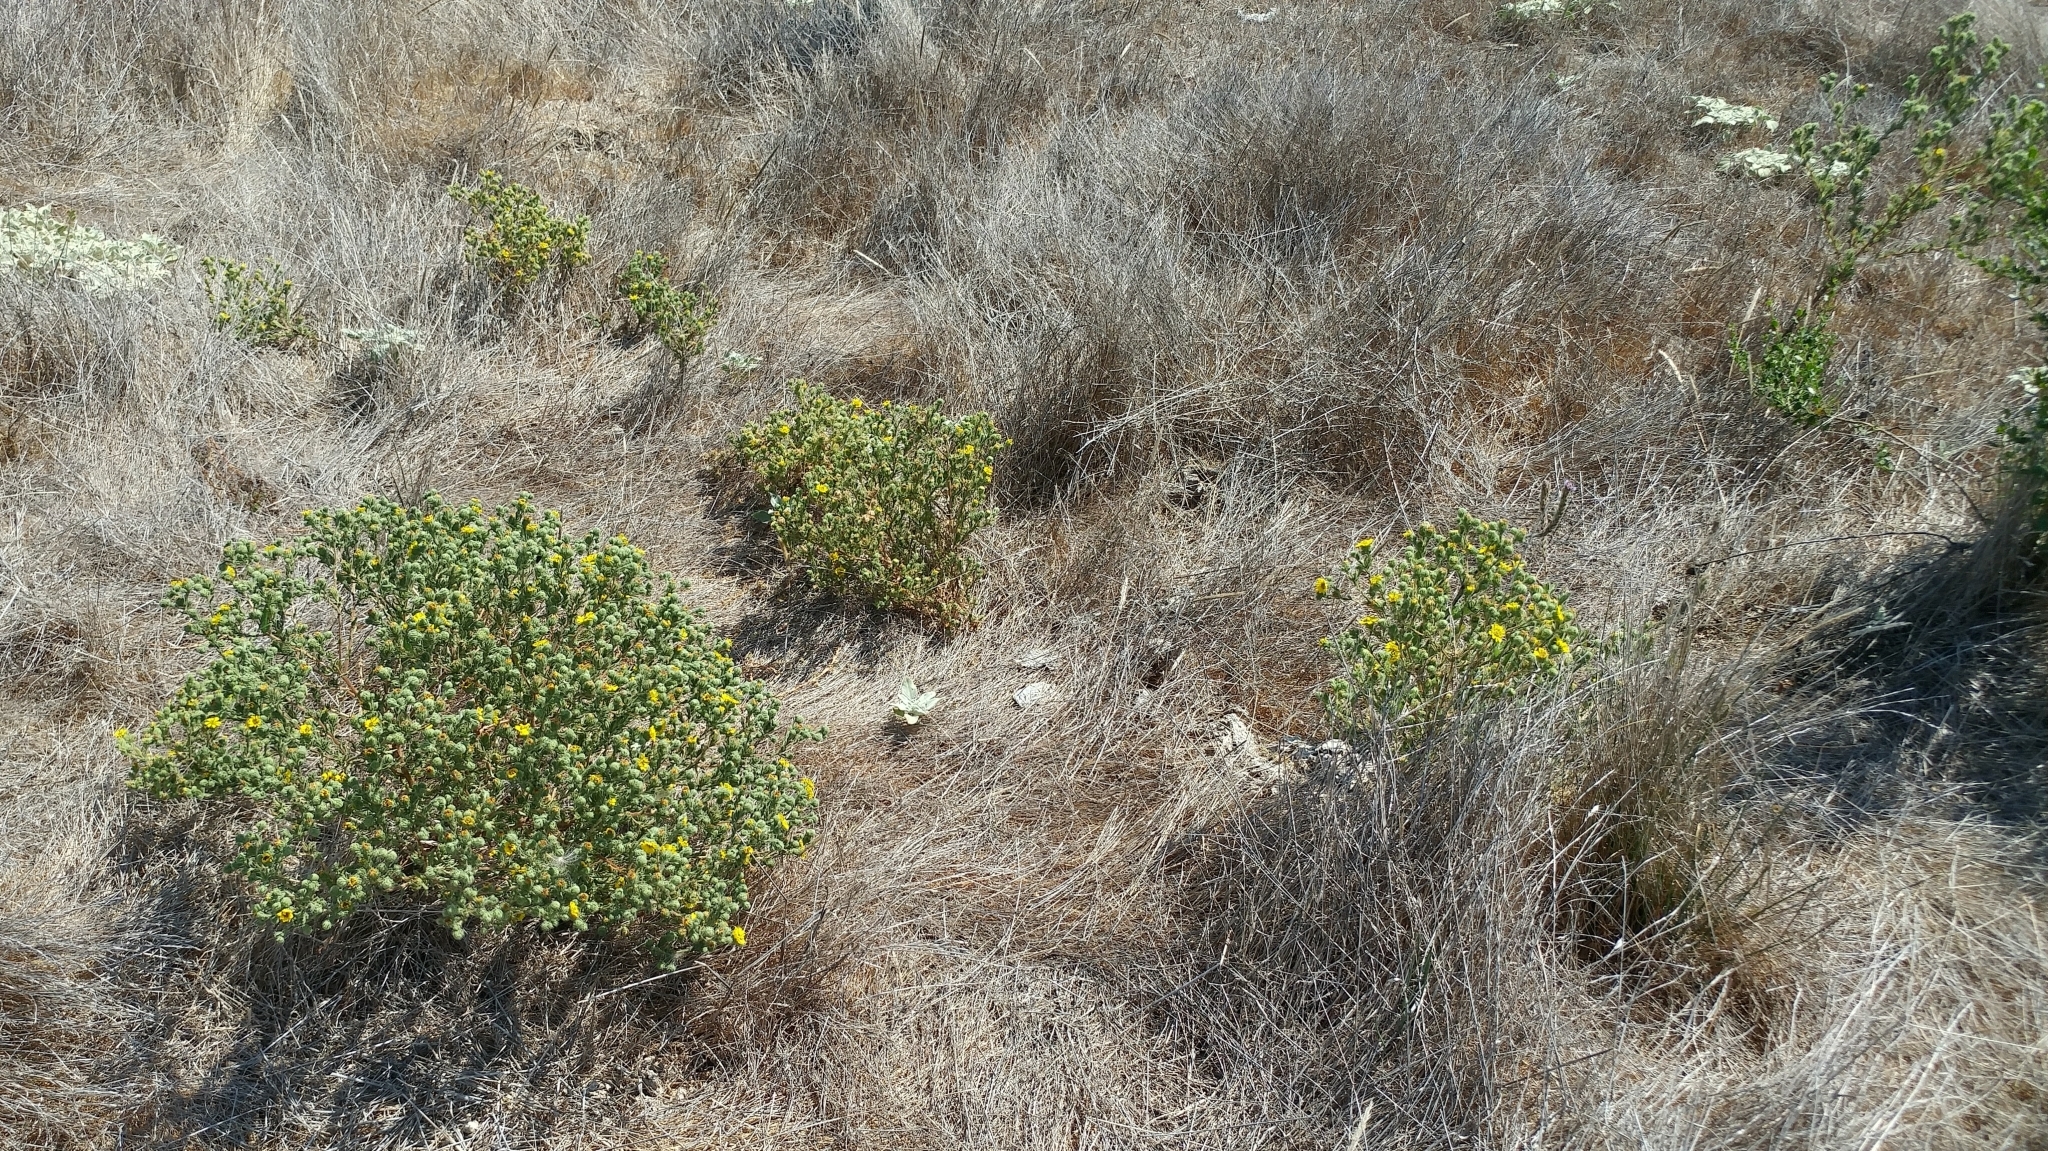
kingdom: Plantae
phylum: Tracheophyta
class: Magnoliopsida
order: Asterales
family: Asteraceae
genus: Deinandra
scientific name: Deinandra increscens
